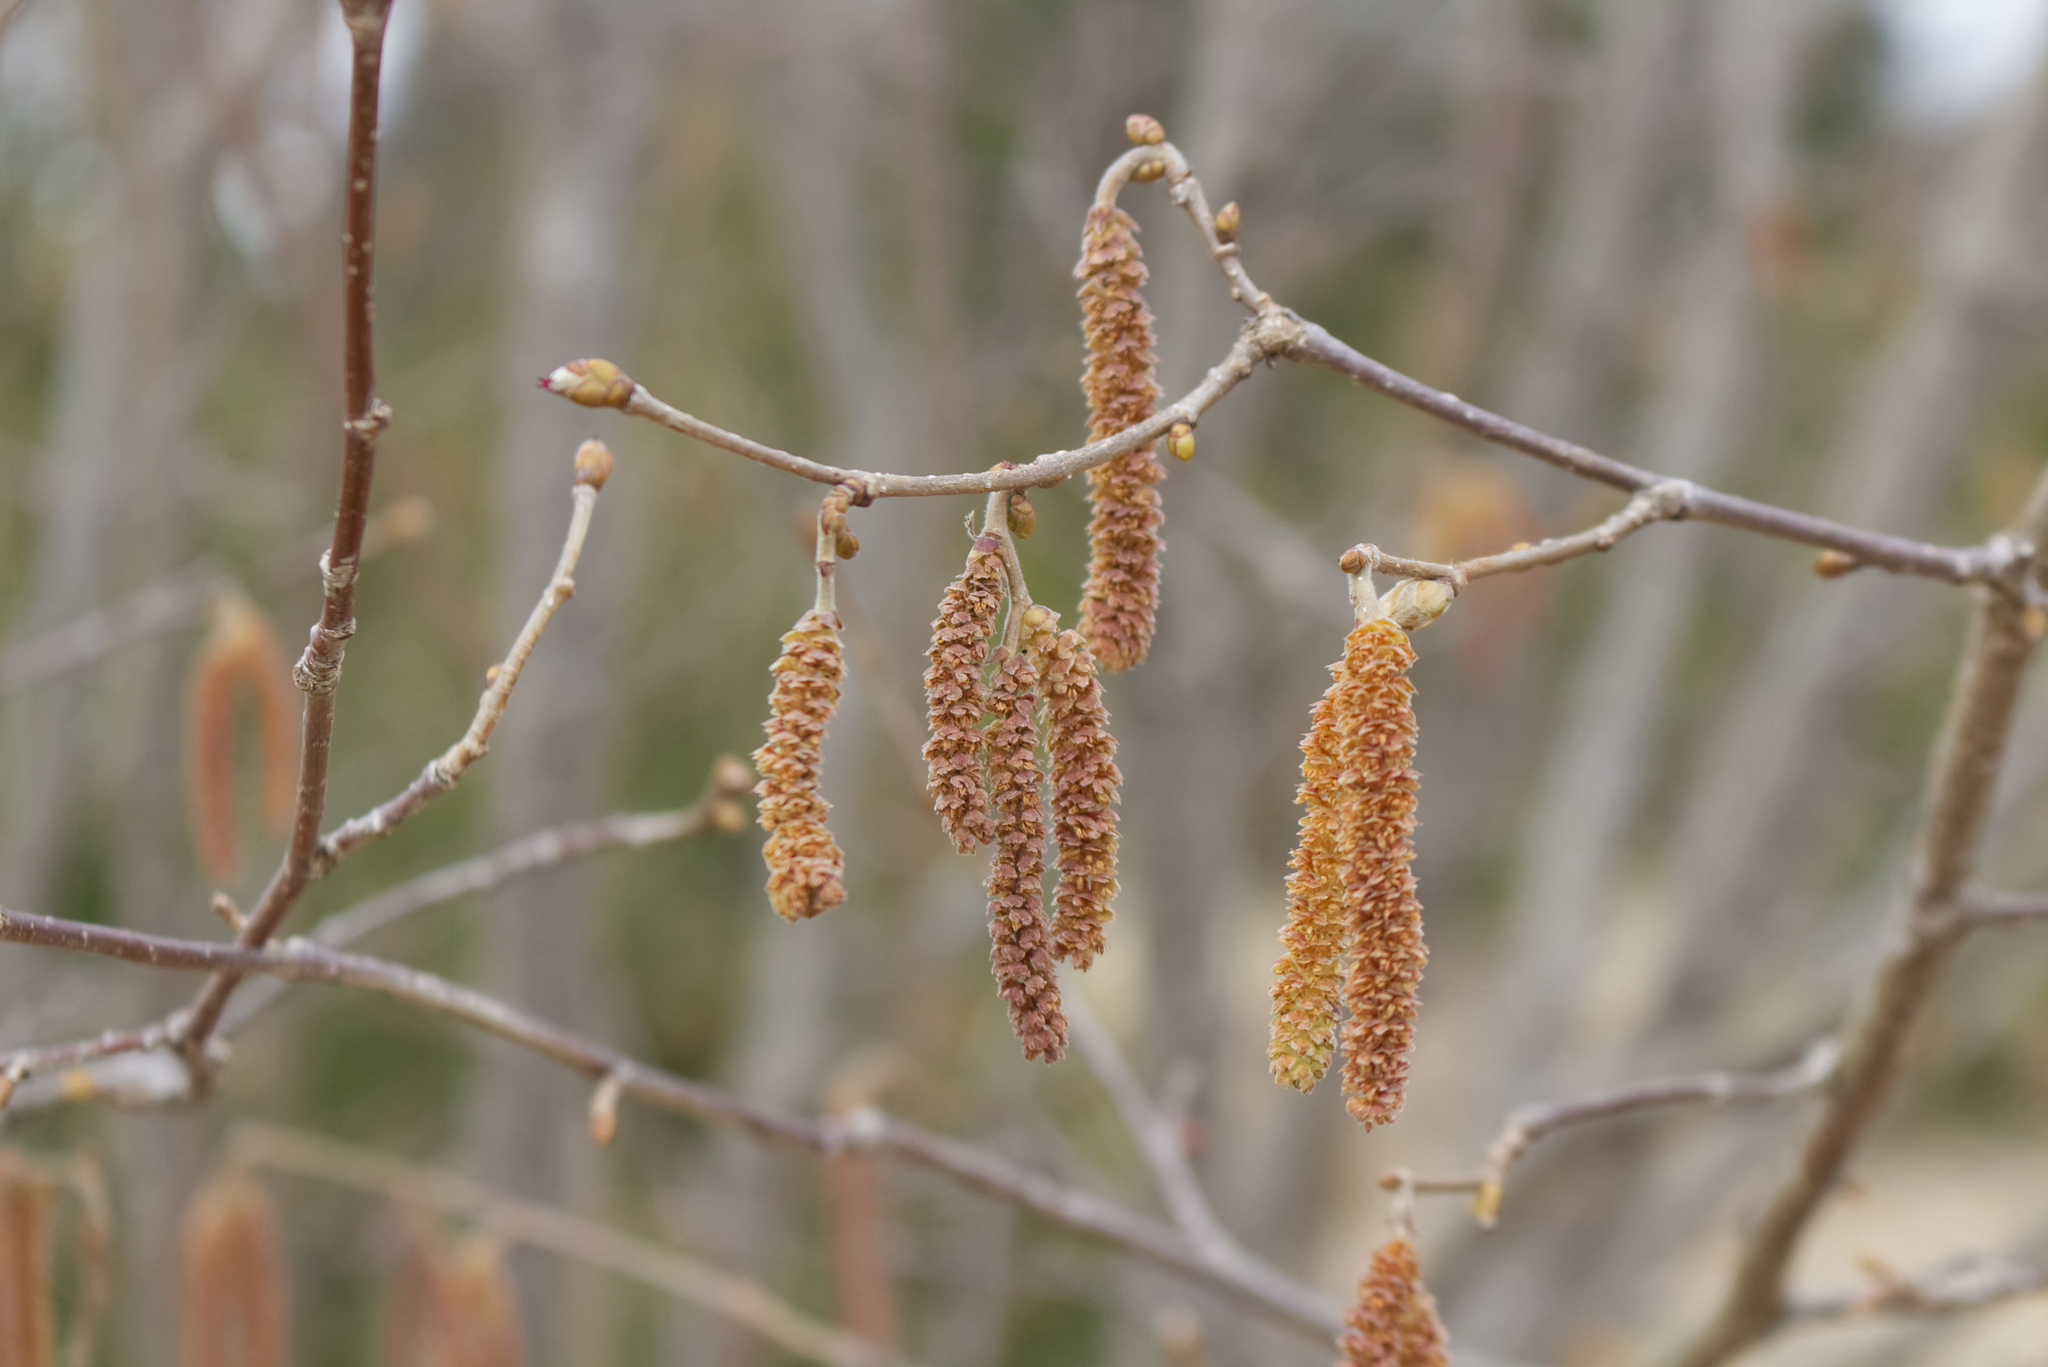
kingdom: Plantae
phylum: Tracheophyta
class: Magnoliopsida
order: Fagales
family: Betulaceae
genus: Corylus
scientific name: Corylus avellana
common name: European hazel
